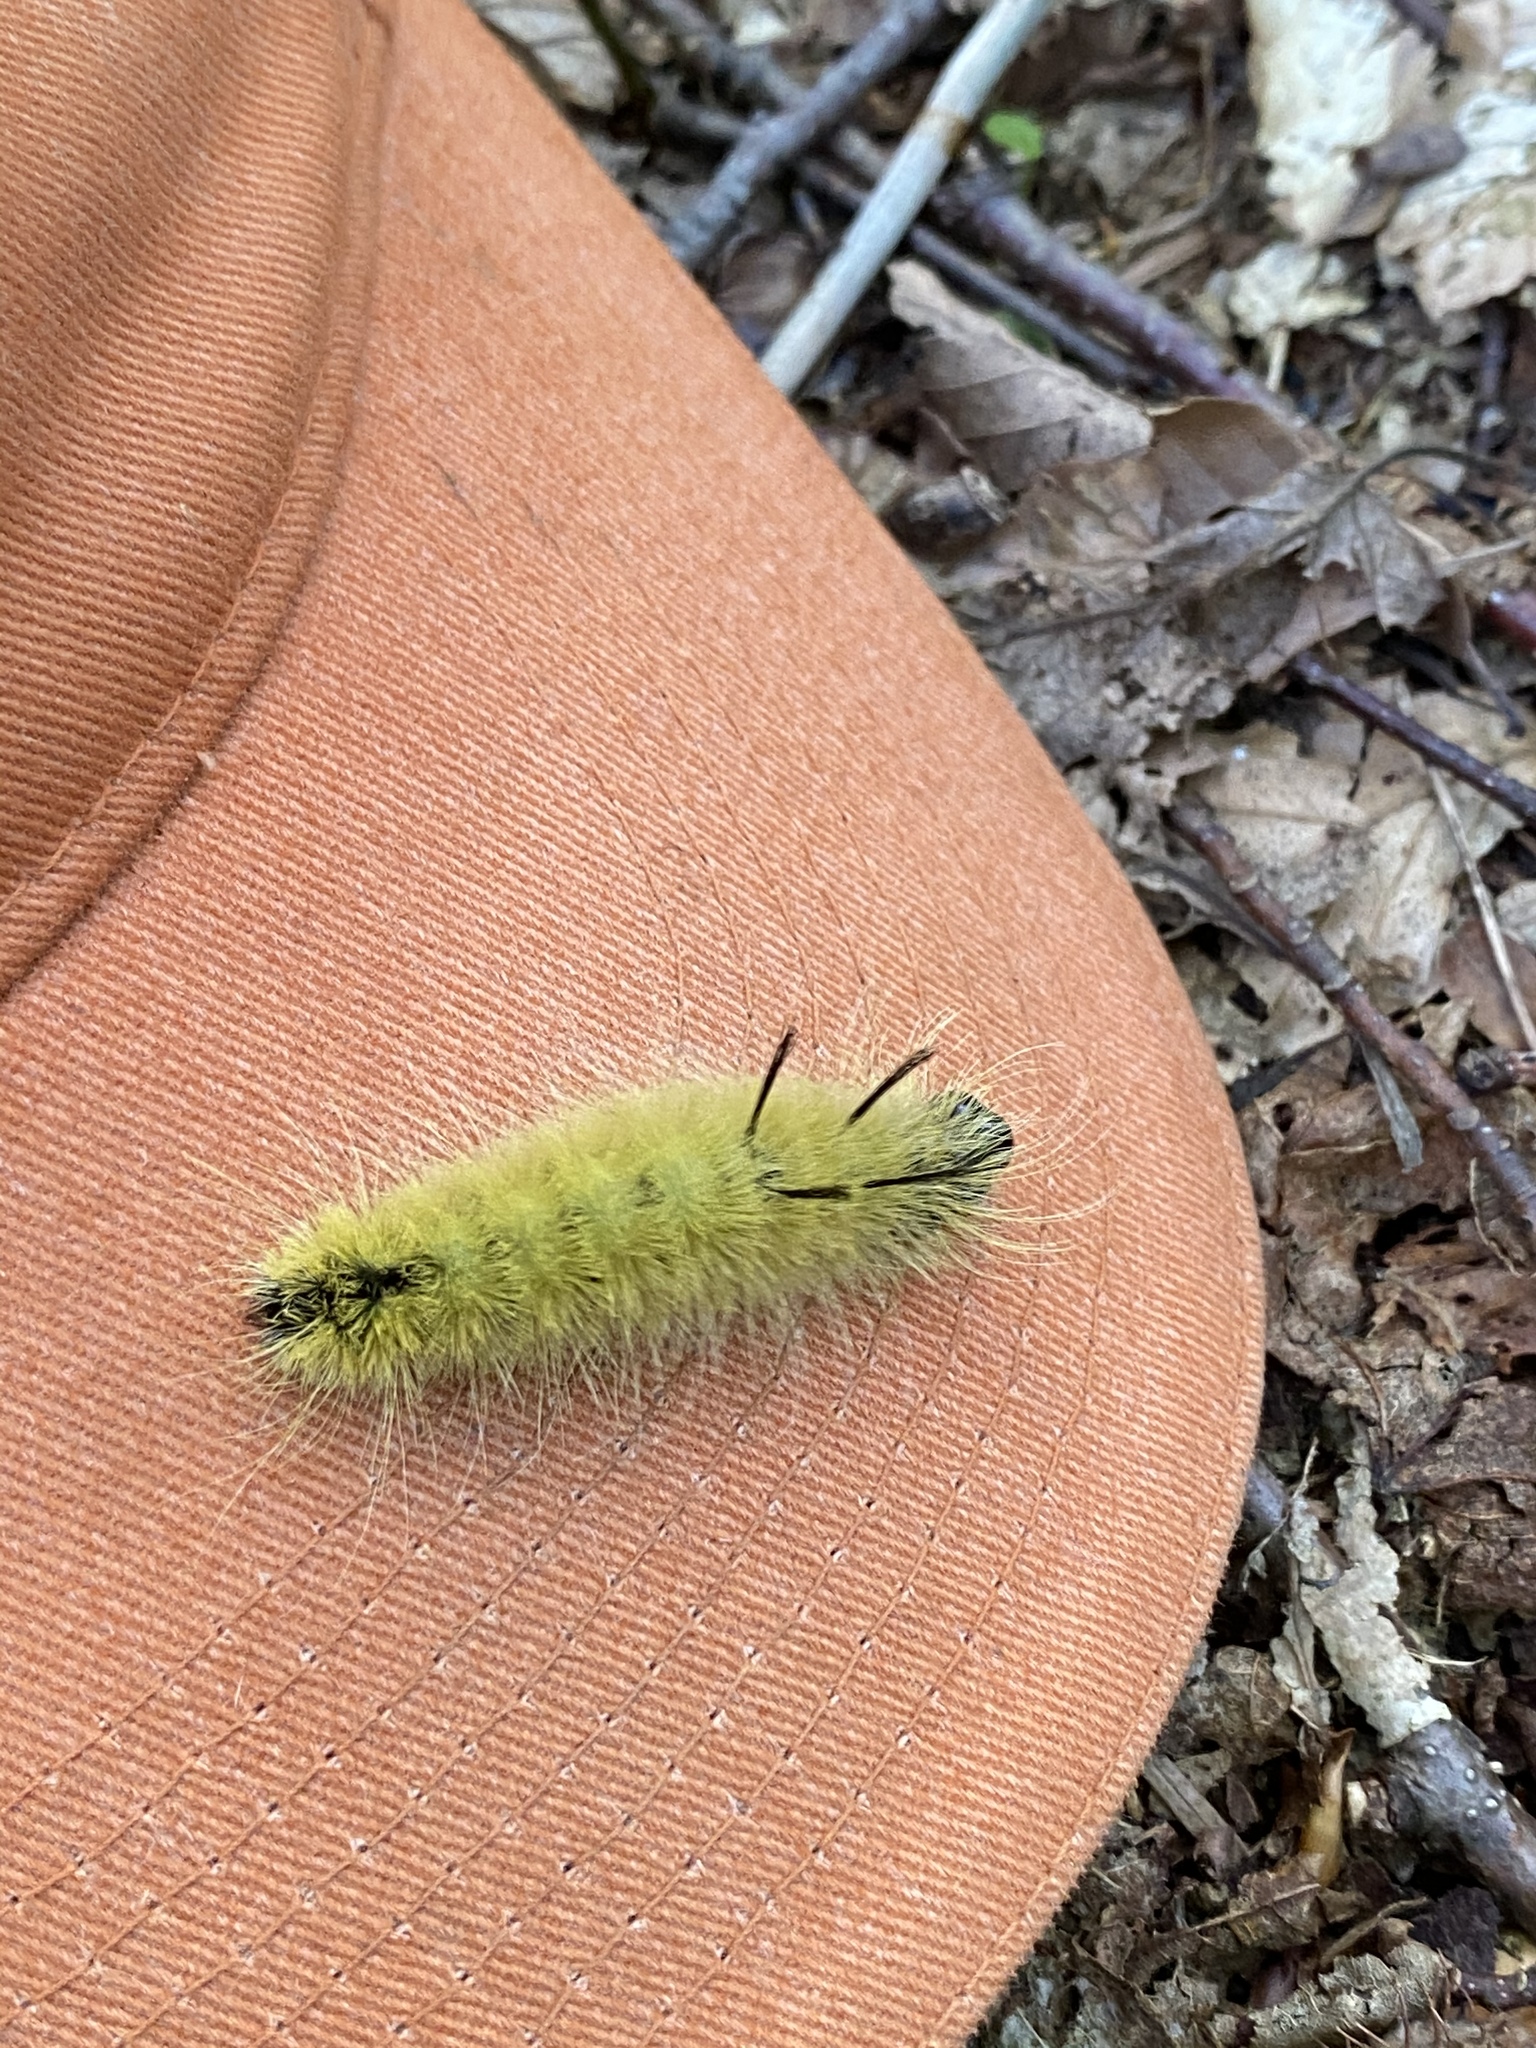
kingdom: Animalia
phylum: Arthropoda
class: Insecta
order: Lepidoptera
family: Noctuidae
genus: Acronicta
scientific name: Acronicta americana
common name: American dagger
